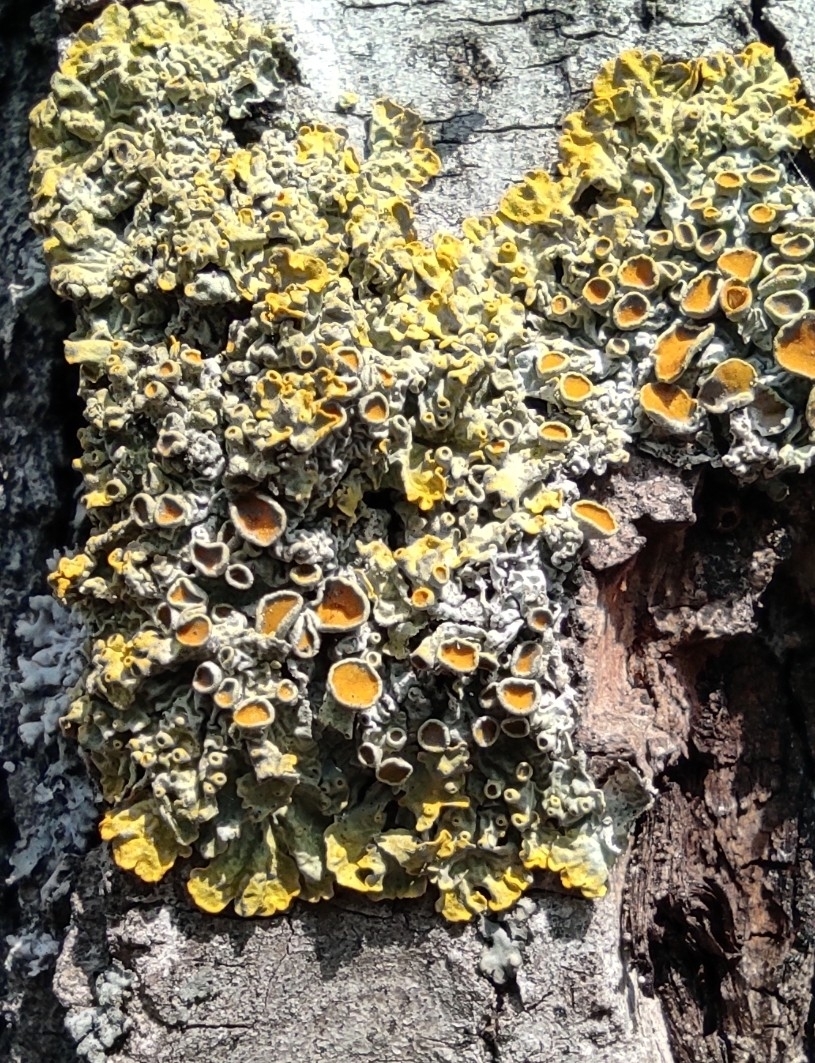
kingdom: Fungi
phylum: Ascomycota
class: Lecanoromycetes
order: Teloschistales
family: Teloschistaceae
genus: Xanthoria
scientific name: Xanthoria parietina
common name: Common orange lichen
